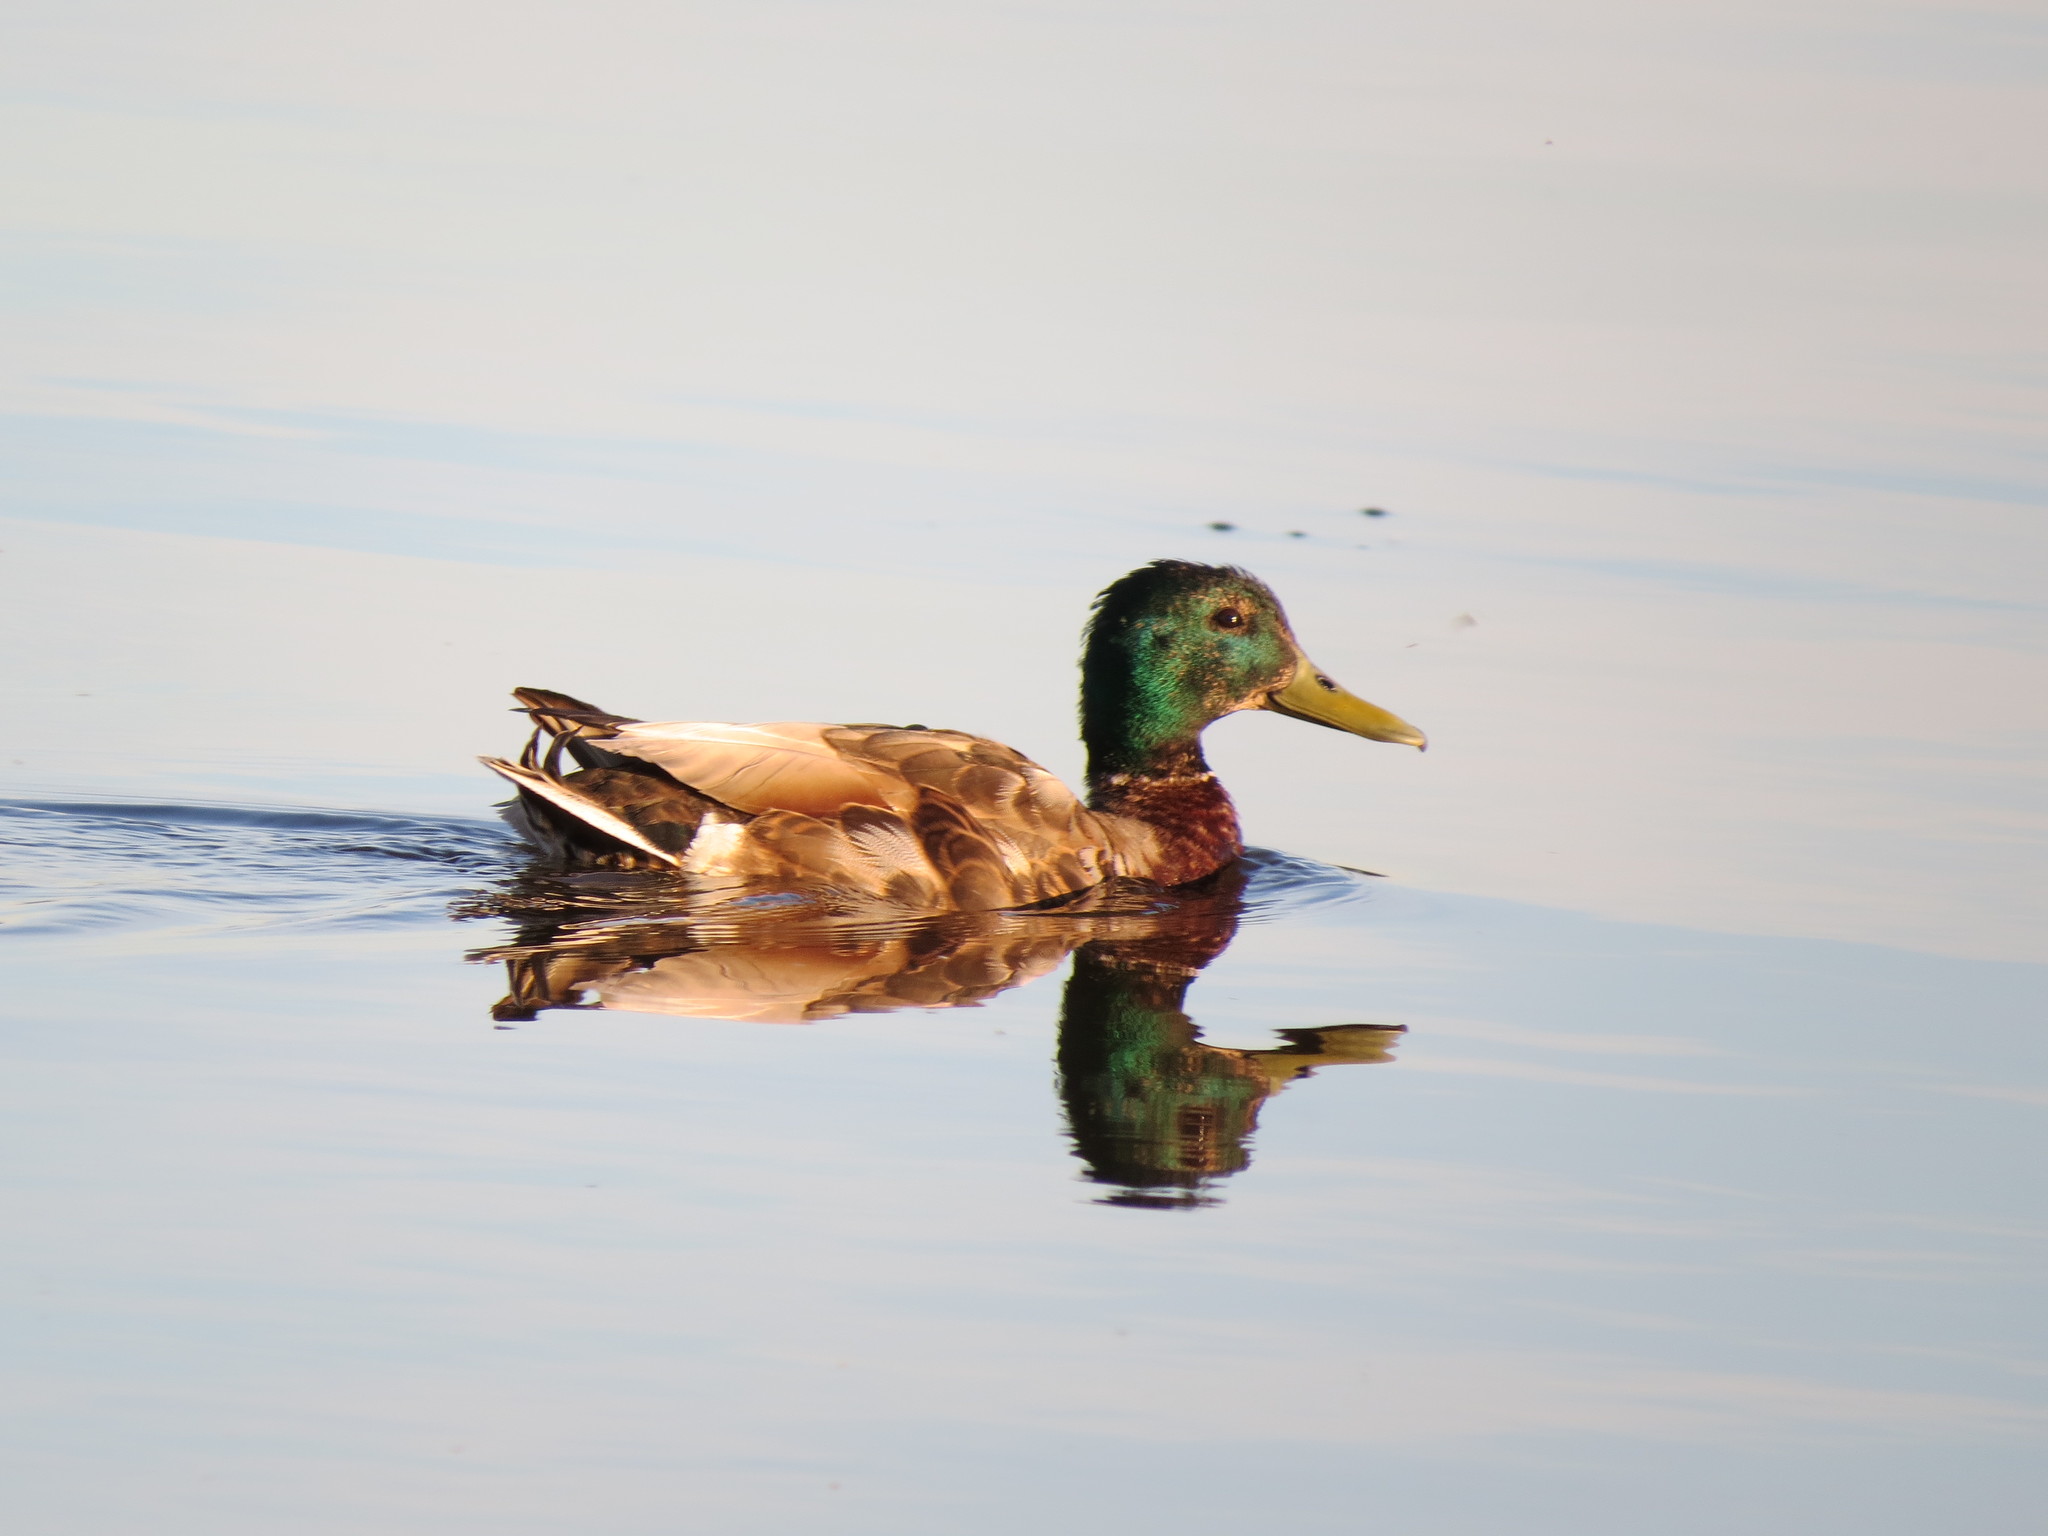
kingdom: Animalia
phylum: Chordata
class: Aves
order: Anseriformes
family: Anatidae
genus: Anas
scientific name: Anas platyrhynchos
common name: Mallard
